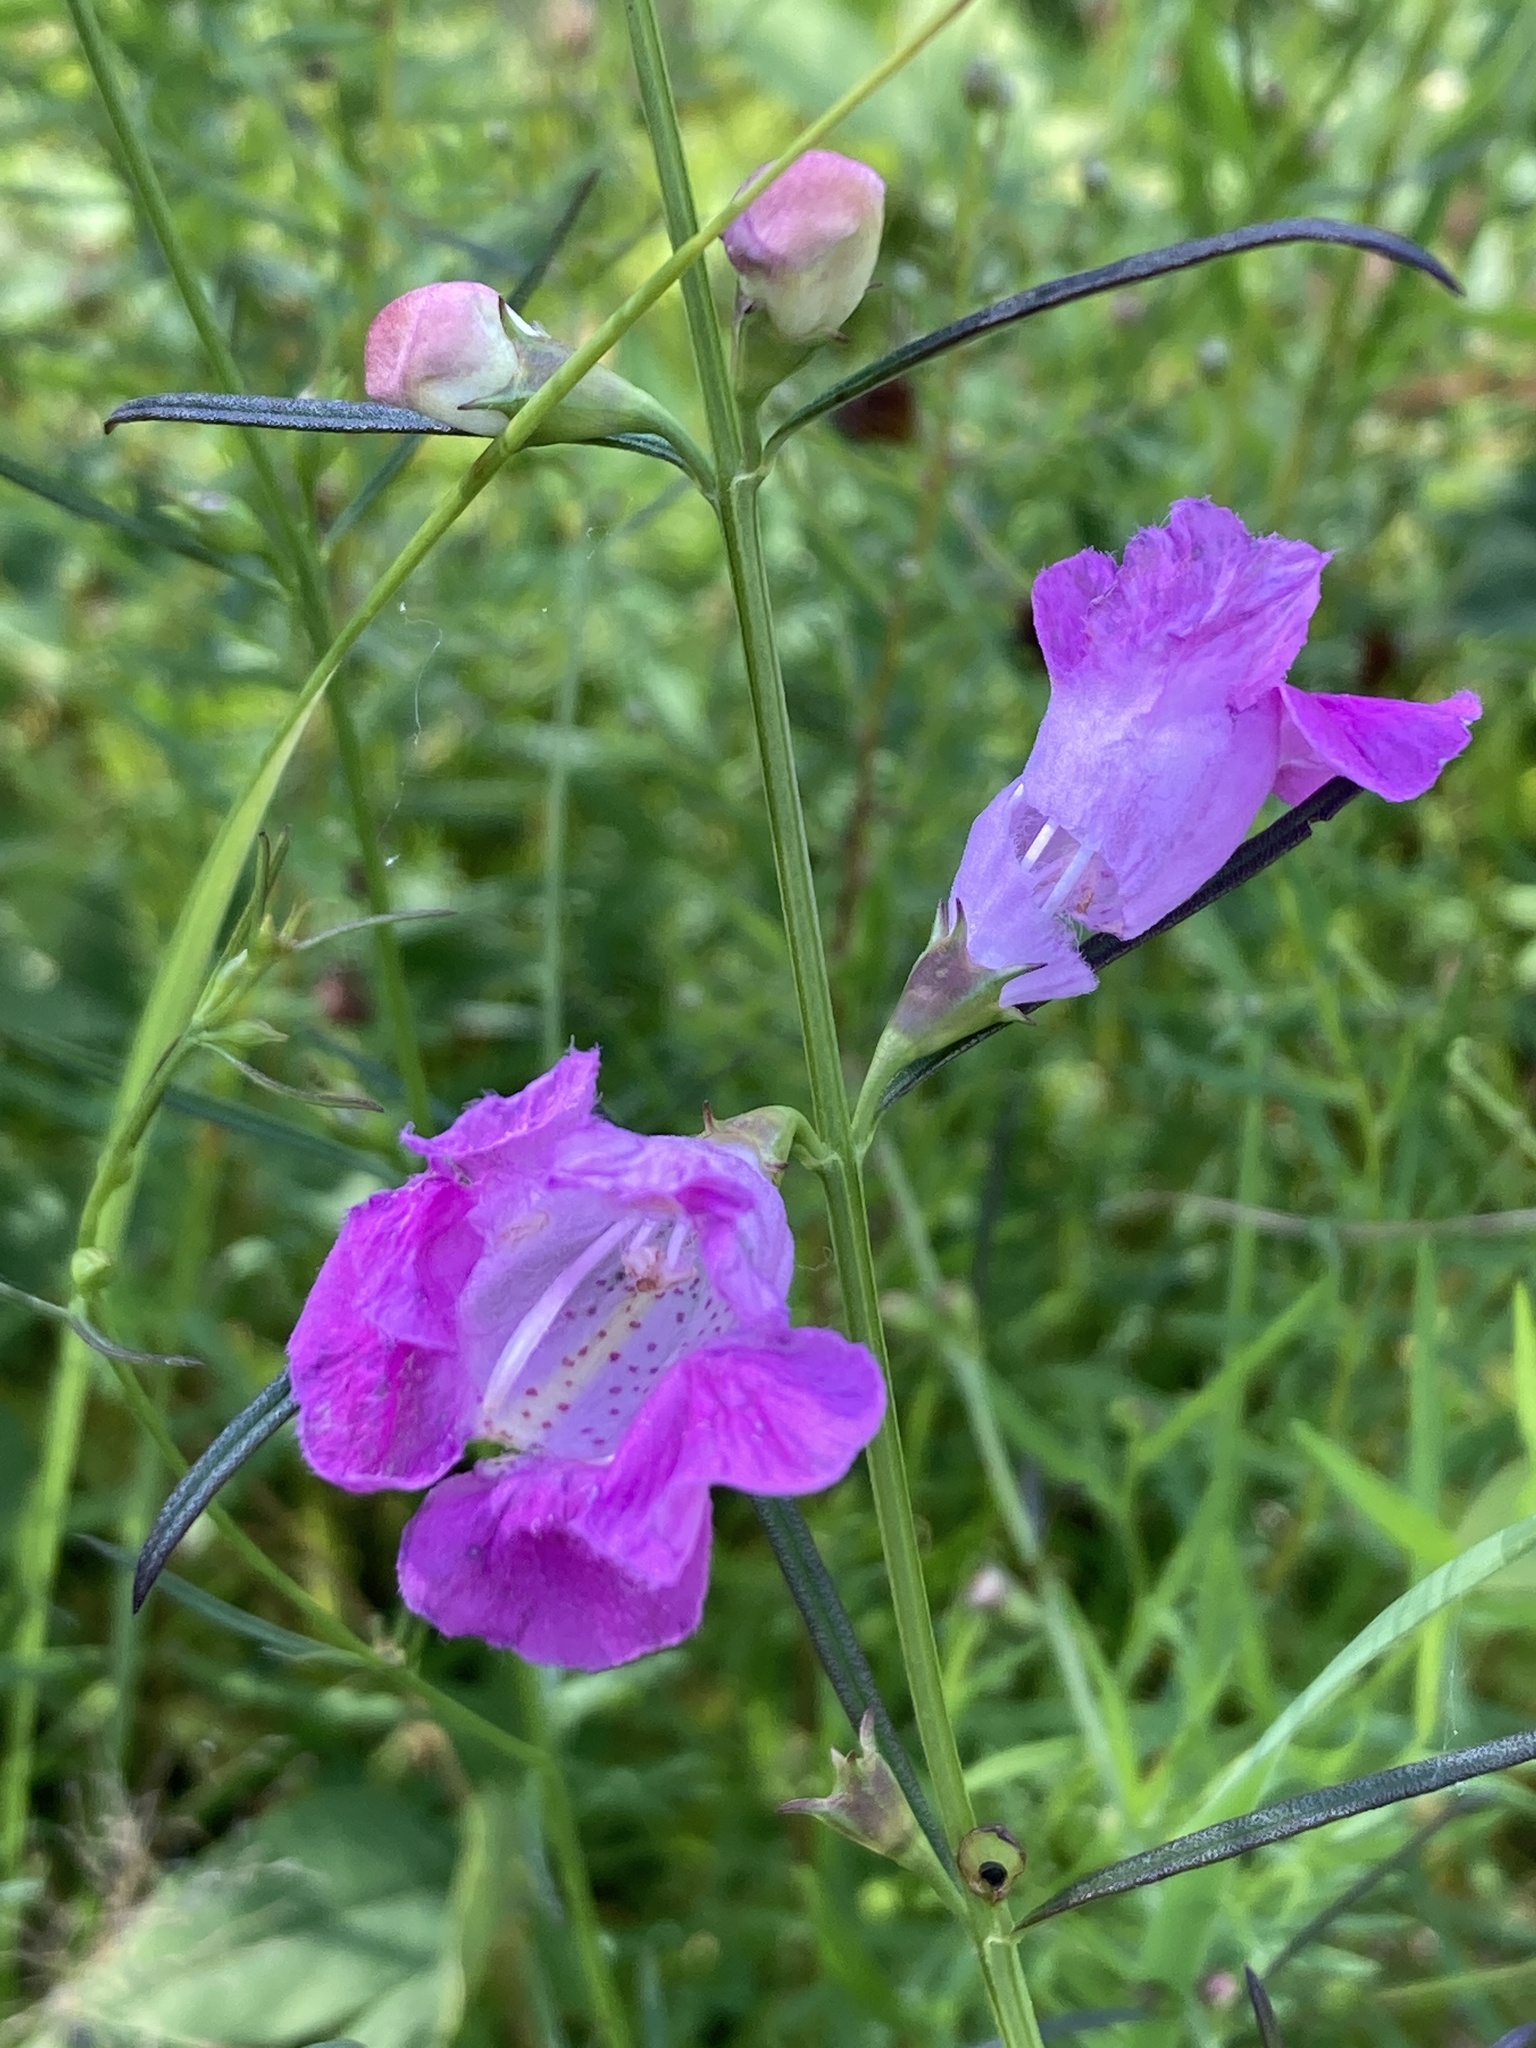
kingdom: Plantae
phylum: Tracheophyta
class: Magnoliopsida
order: Lamiales
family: Orobanchaceae
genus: Agalinis
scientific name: Agalinis purpurea
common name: Purple false foxglove
